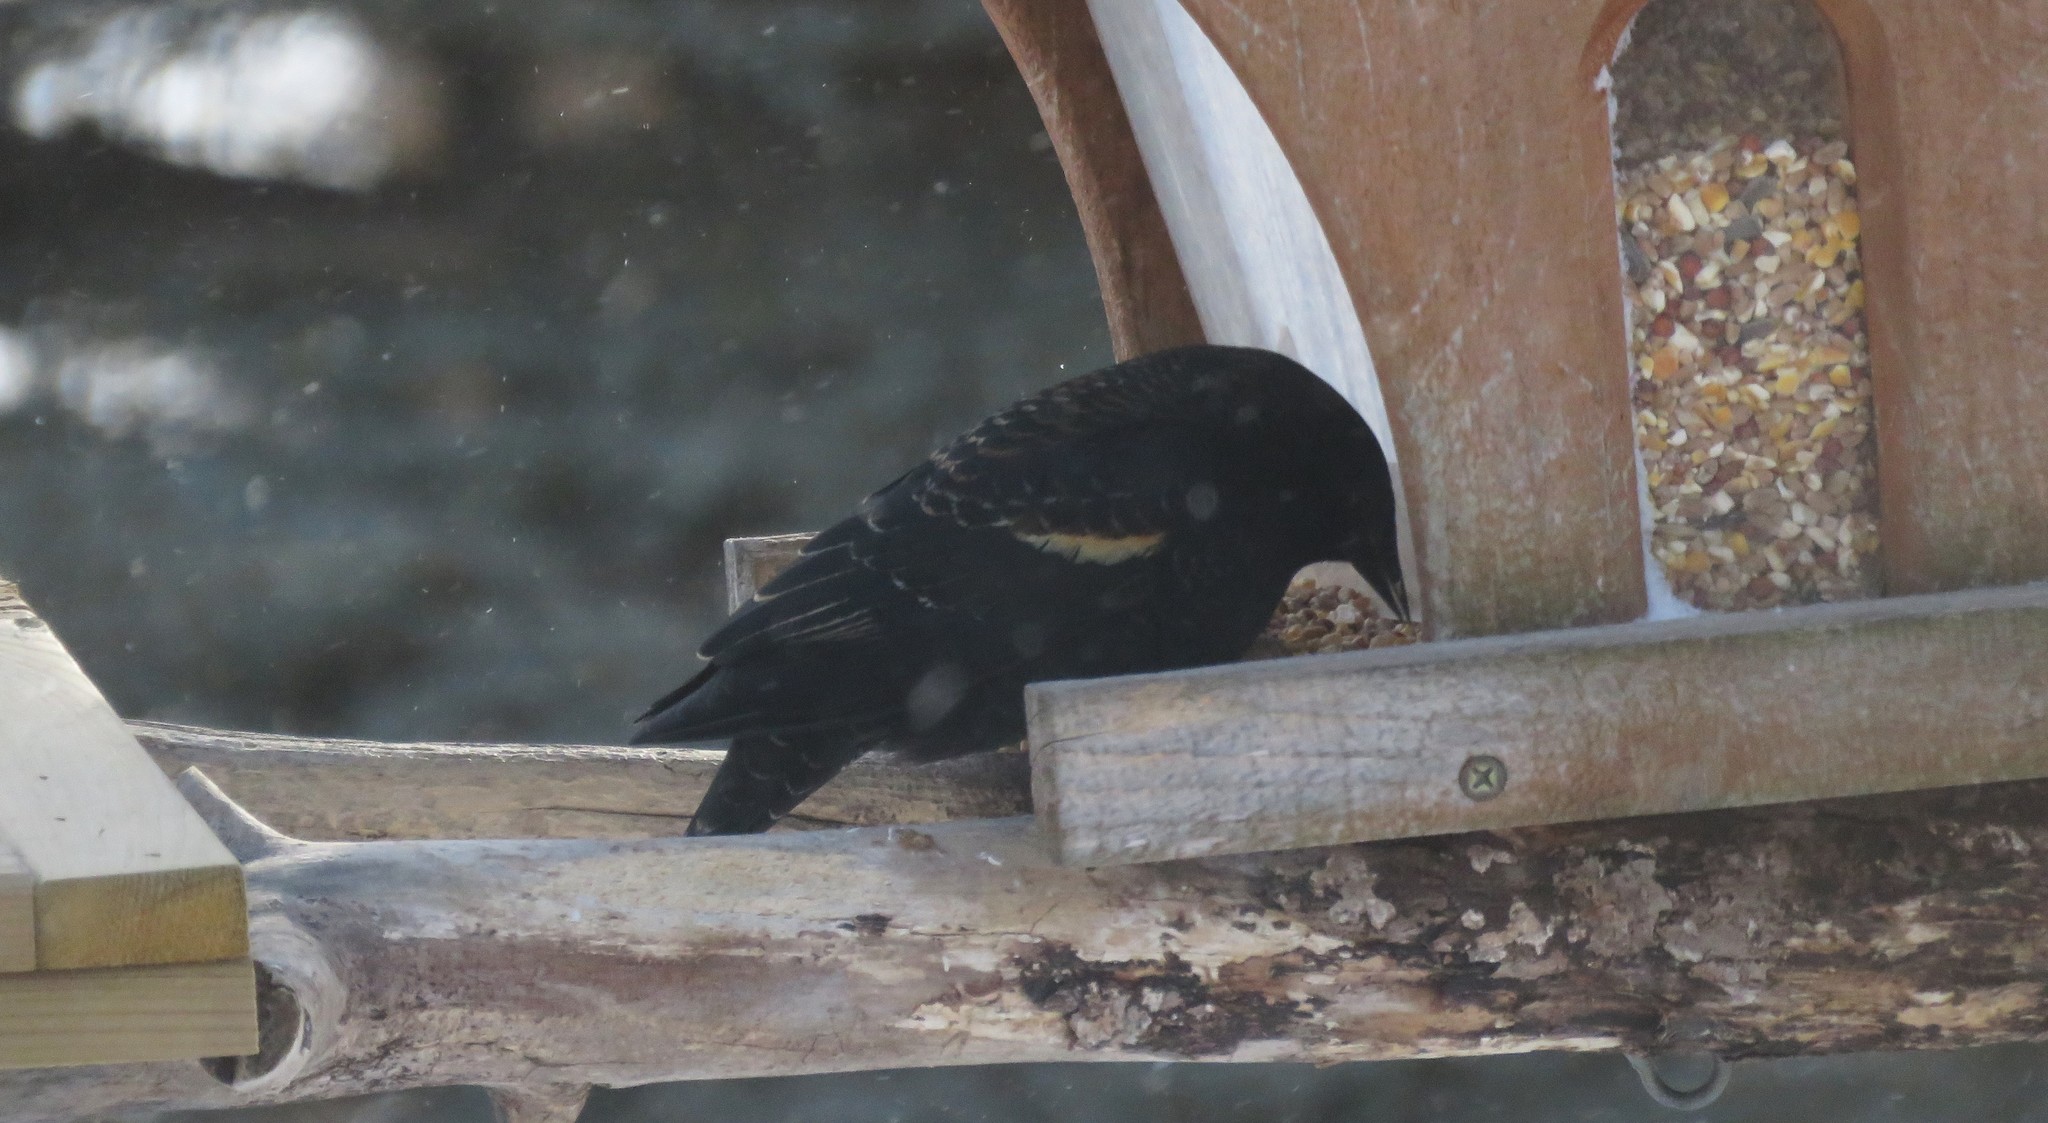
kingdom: Animalia
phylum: Chordata
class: Aves
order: Passeriformes
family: Icteridae
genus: Agelaius
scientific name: Agelaius phoeniceus
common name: Red-winged blackbird
